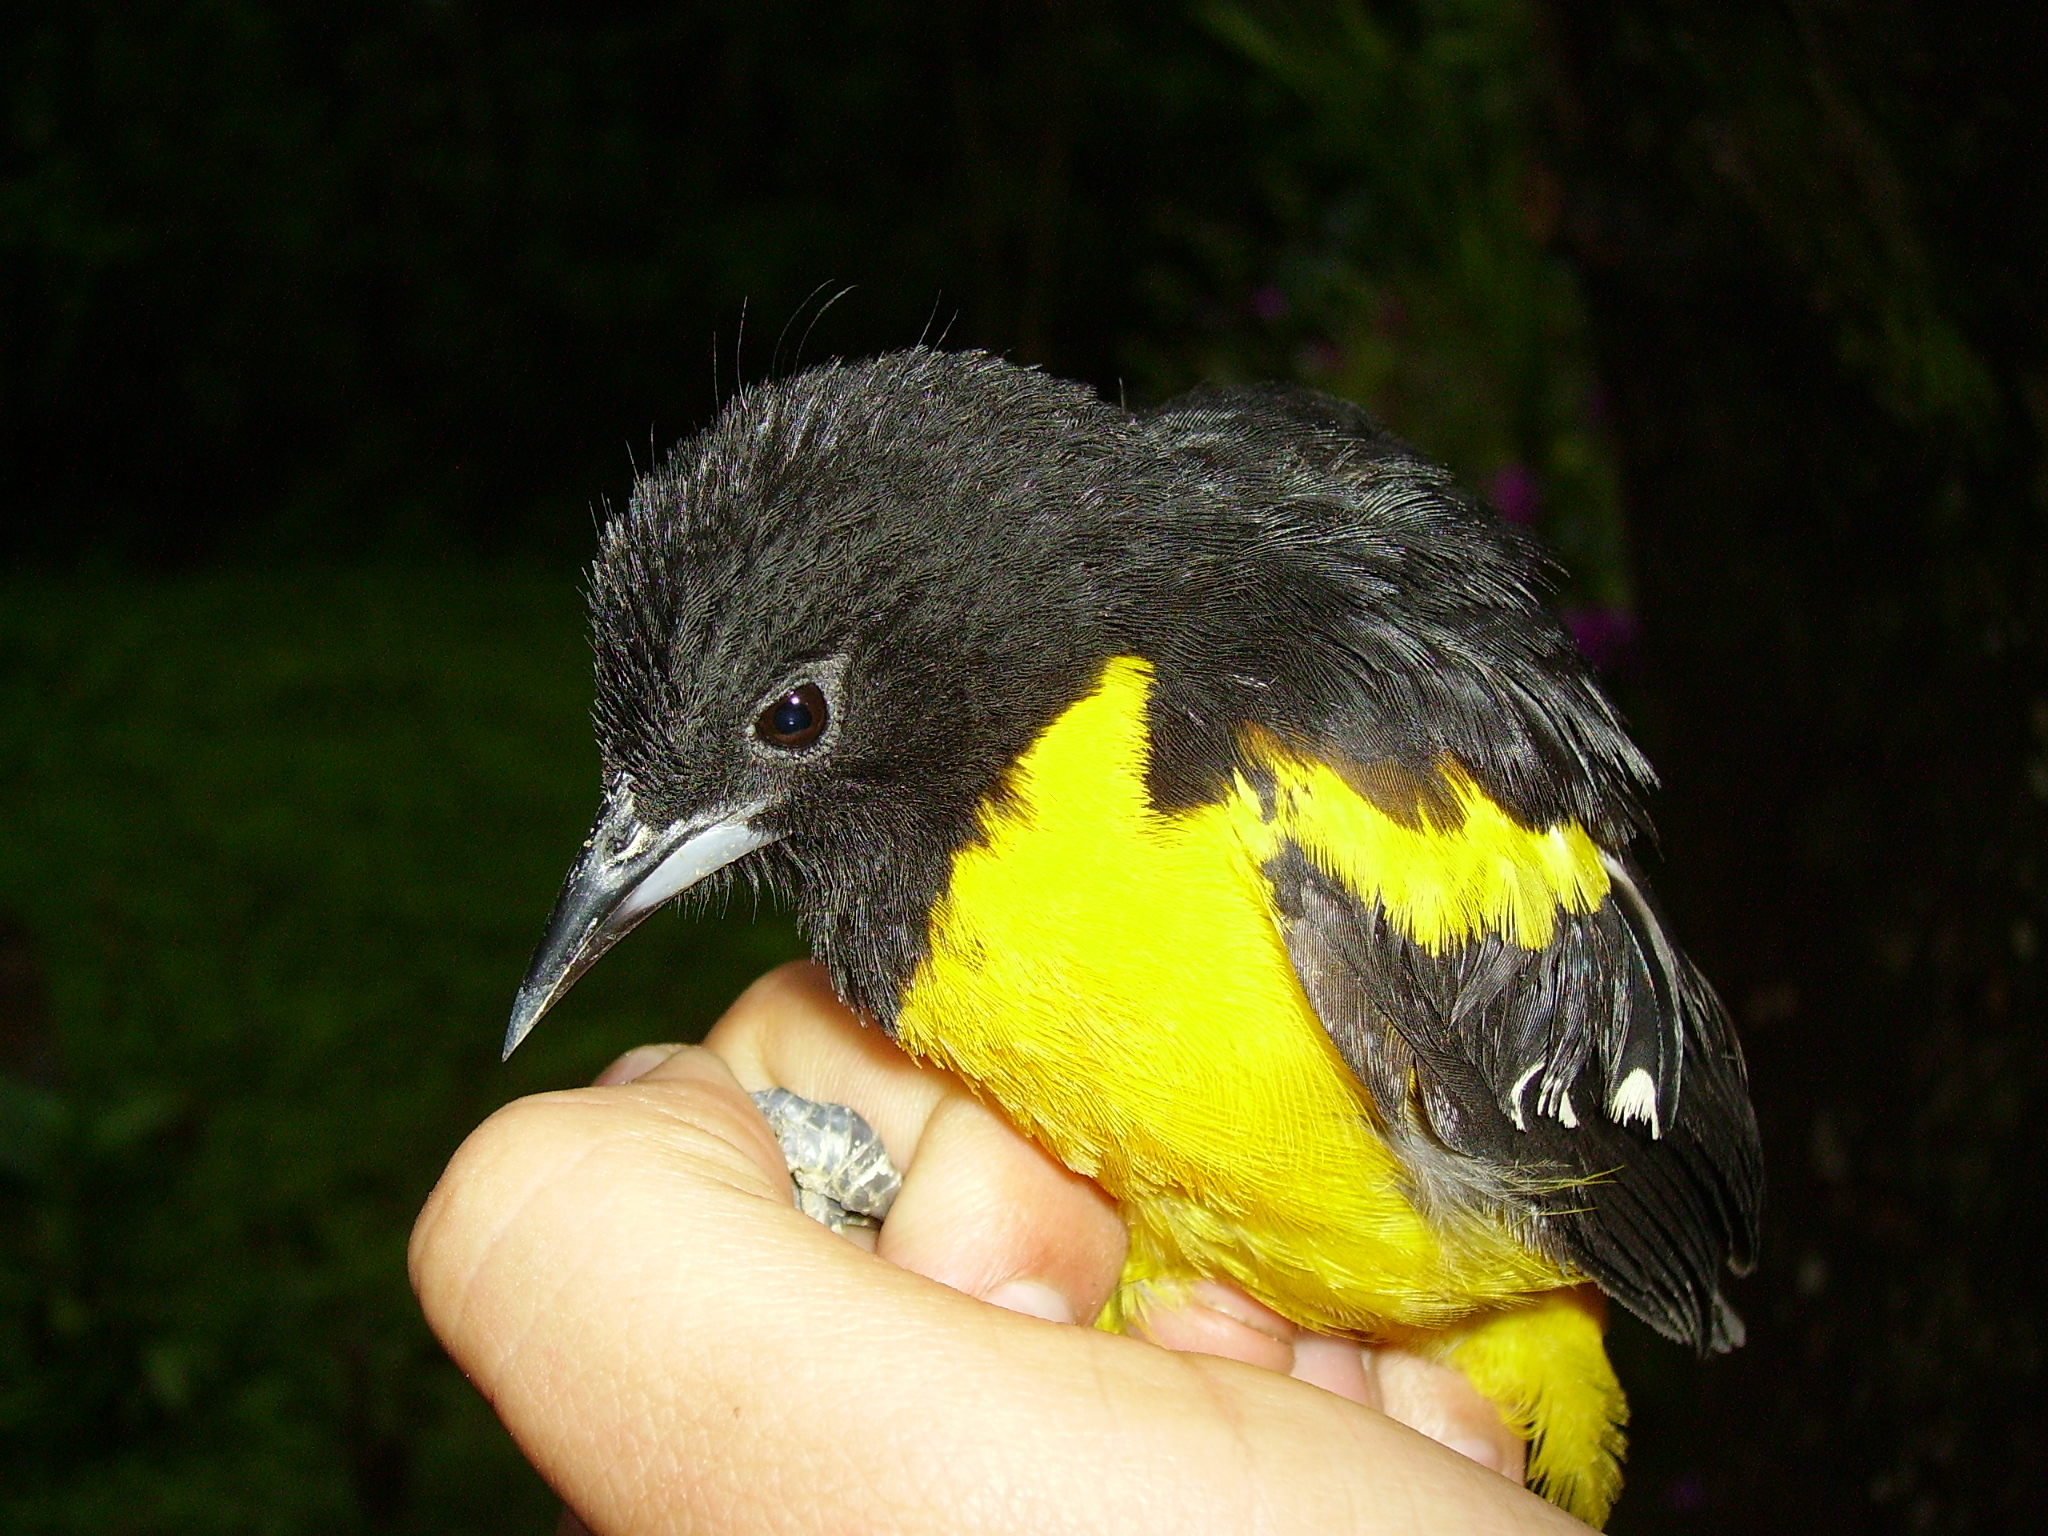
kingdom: Animalia
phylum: Chordata
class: Aves
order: Passeriformes
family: Icteridae
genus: Icterus
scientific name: Icterus maculialatus
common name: Bar-winged oriole
